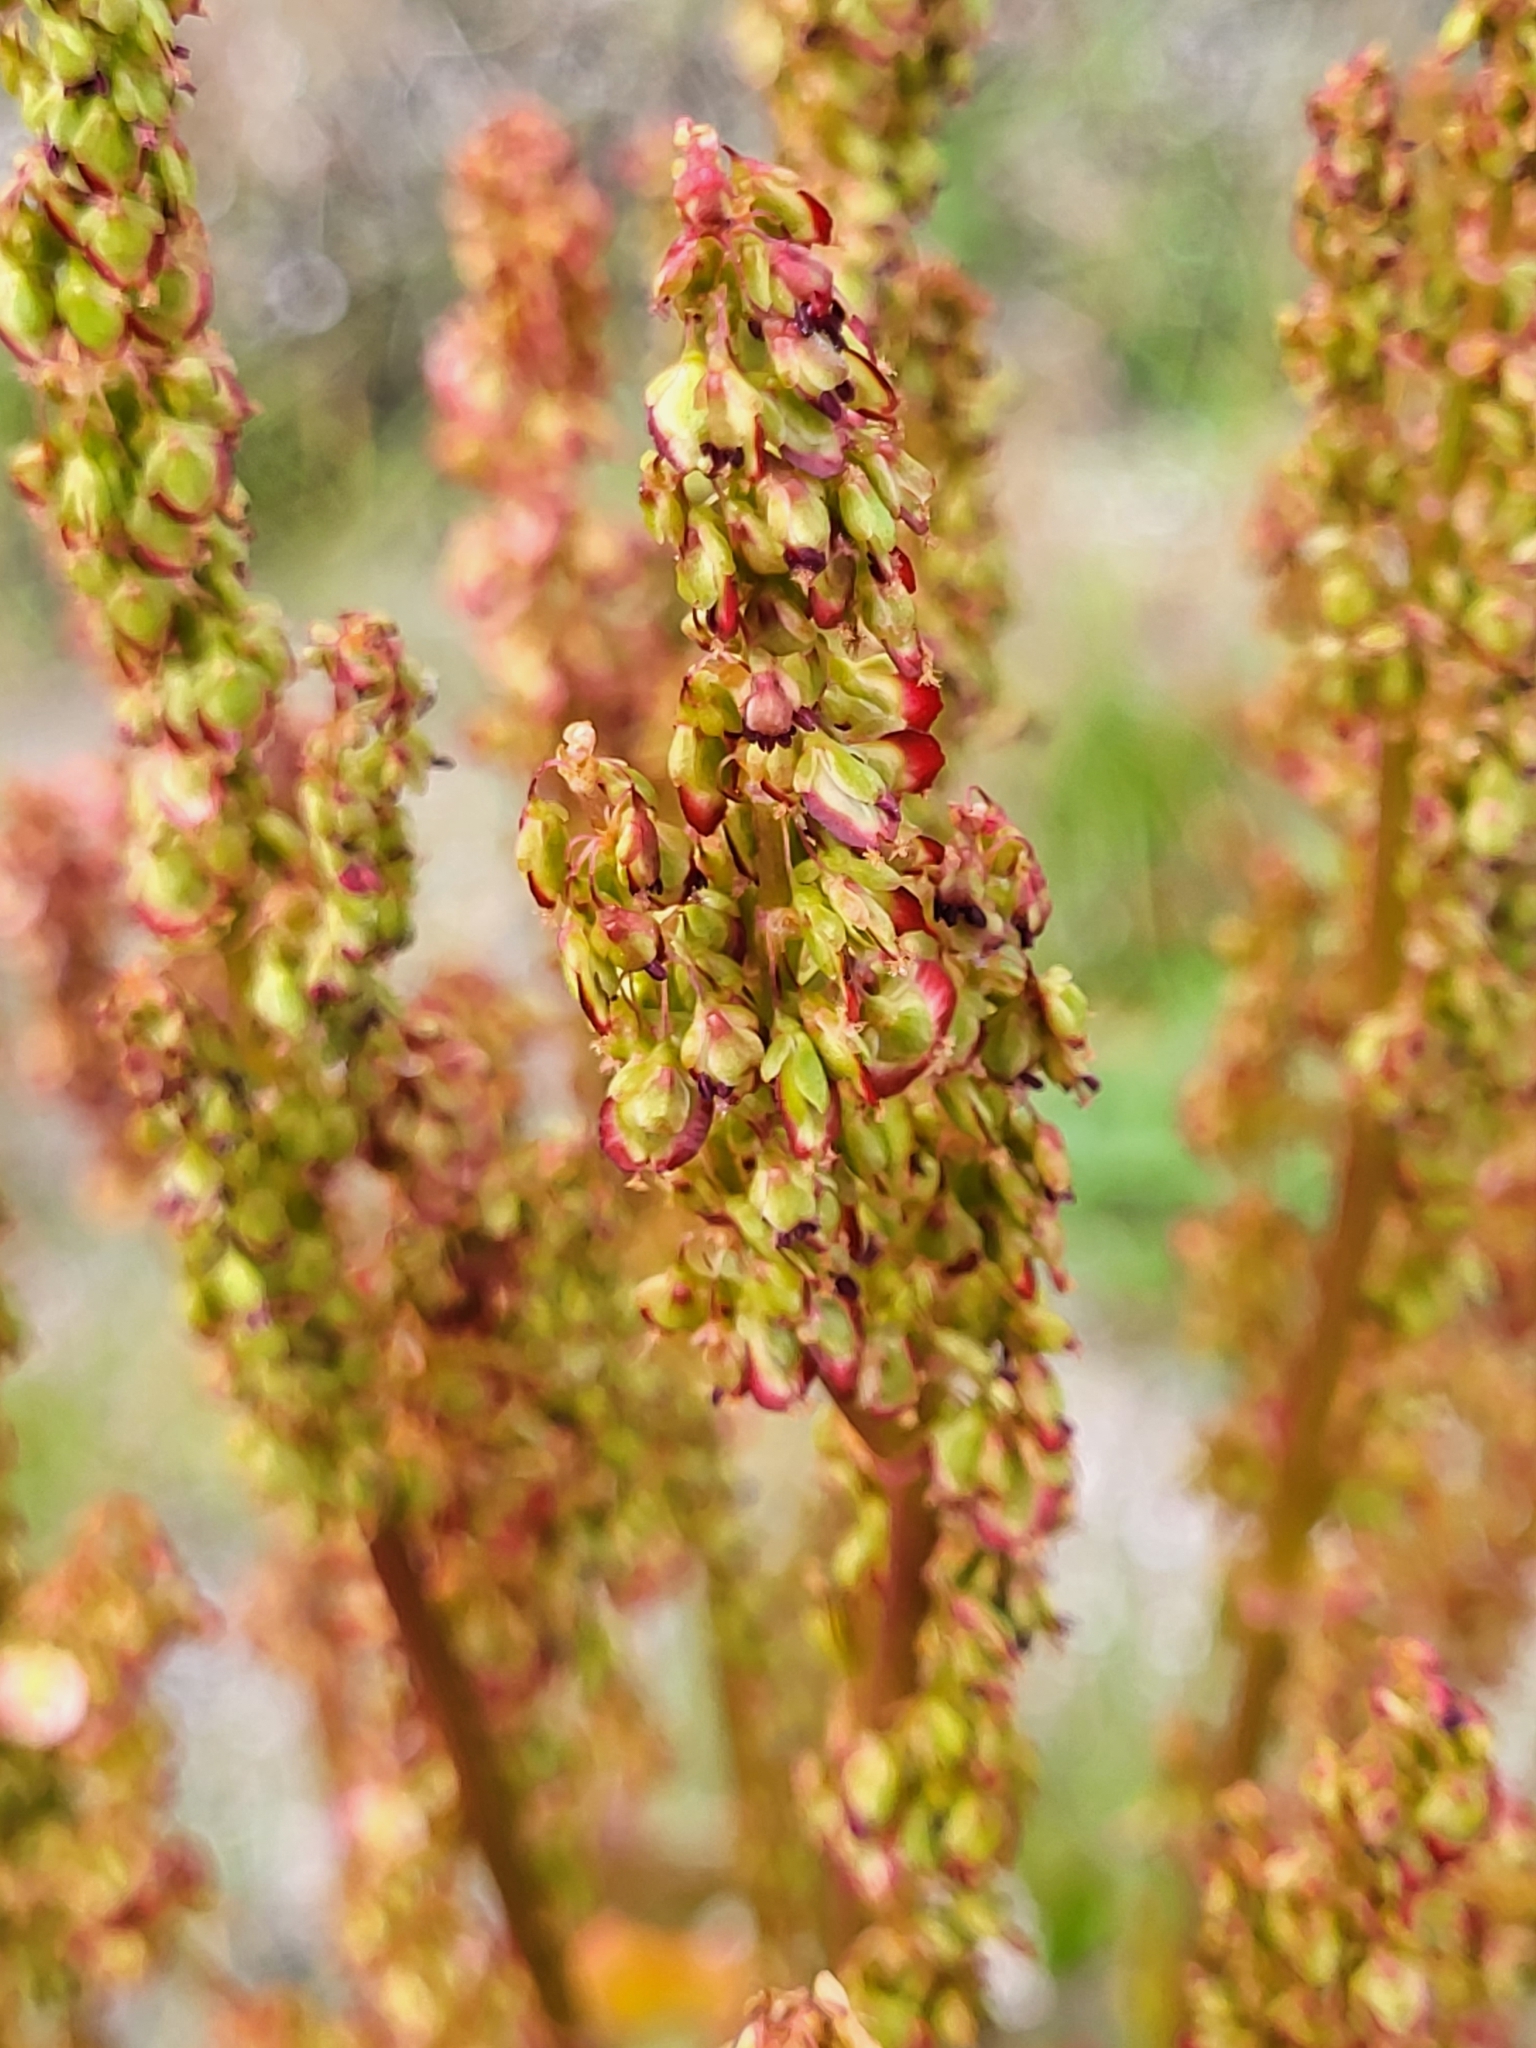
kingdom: Plantae
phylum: Tracheophyta
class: Magnoliopsida
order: Caryophyllales
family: Polygonaceae
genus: Oxyria
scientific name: Oxyria digyna
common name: Alpine mountain-sorrel
